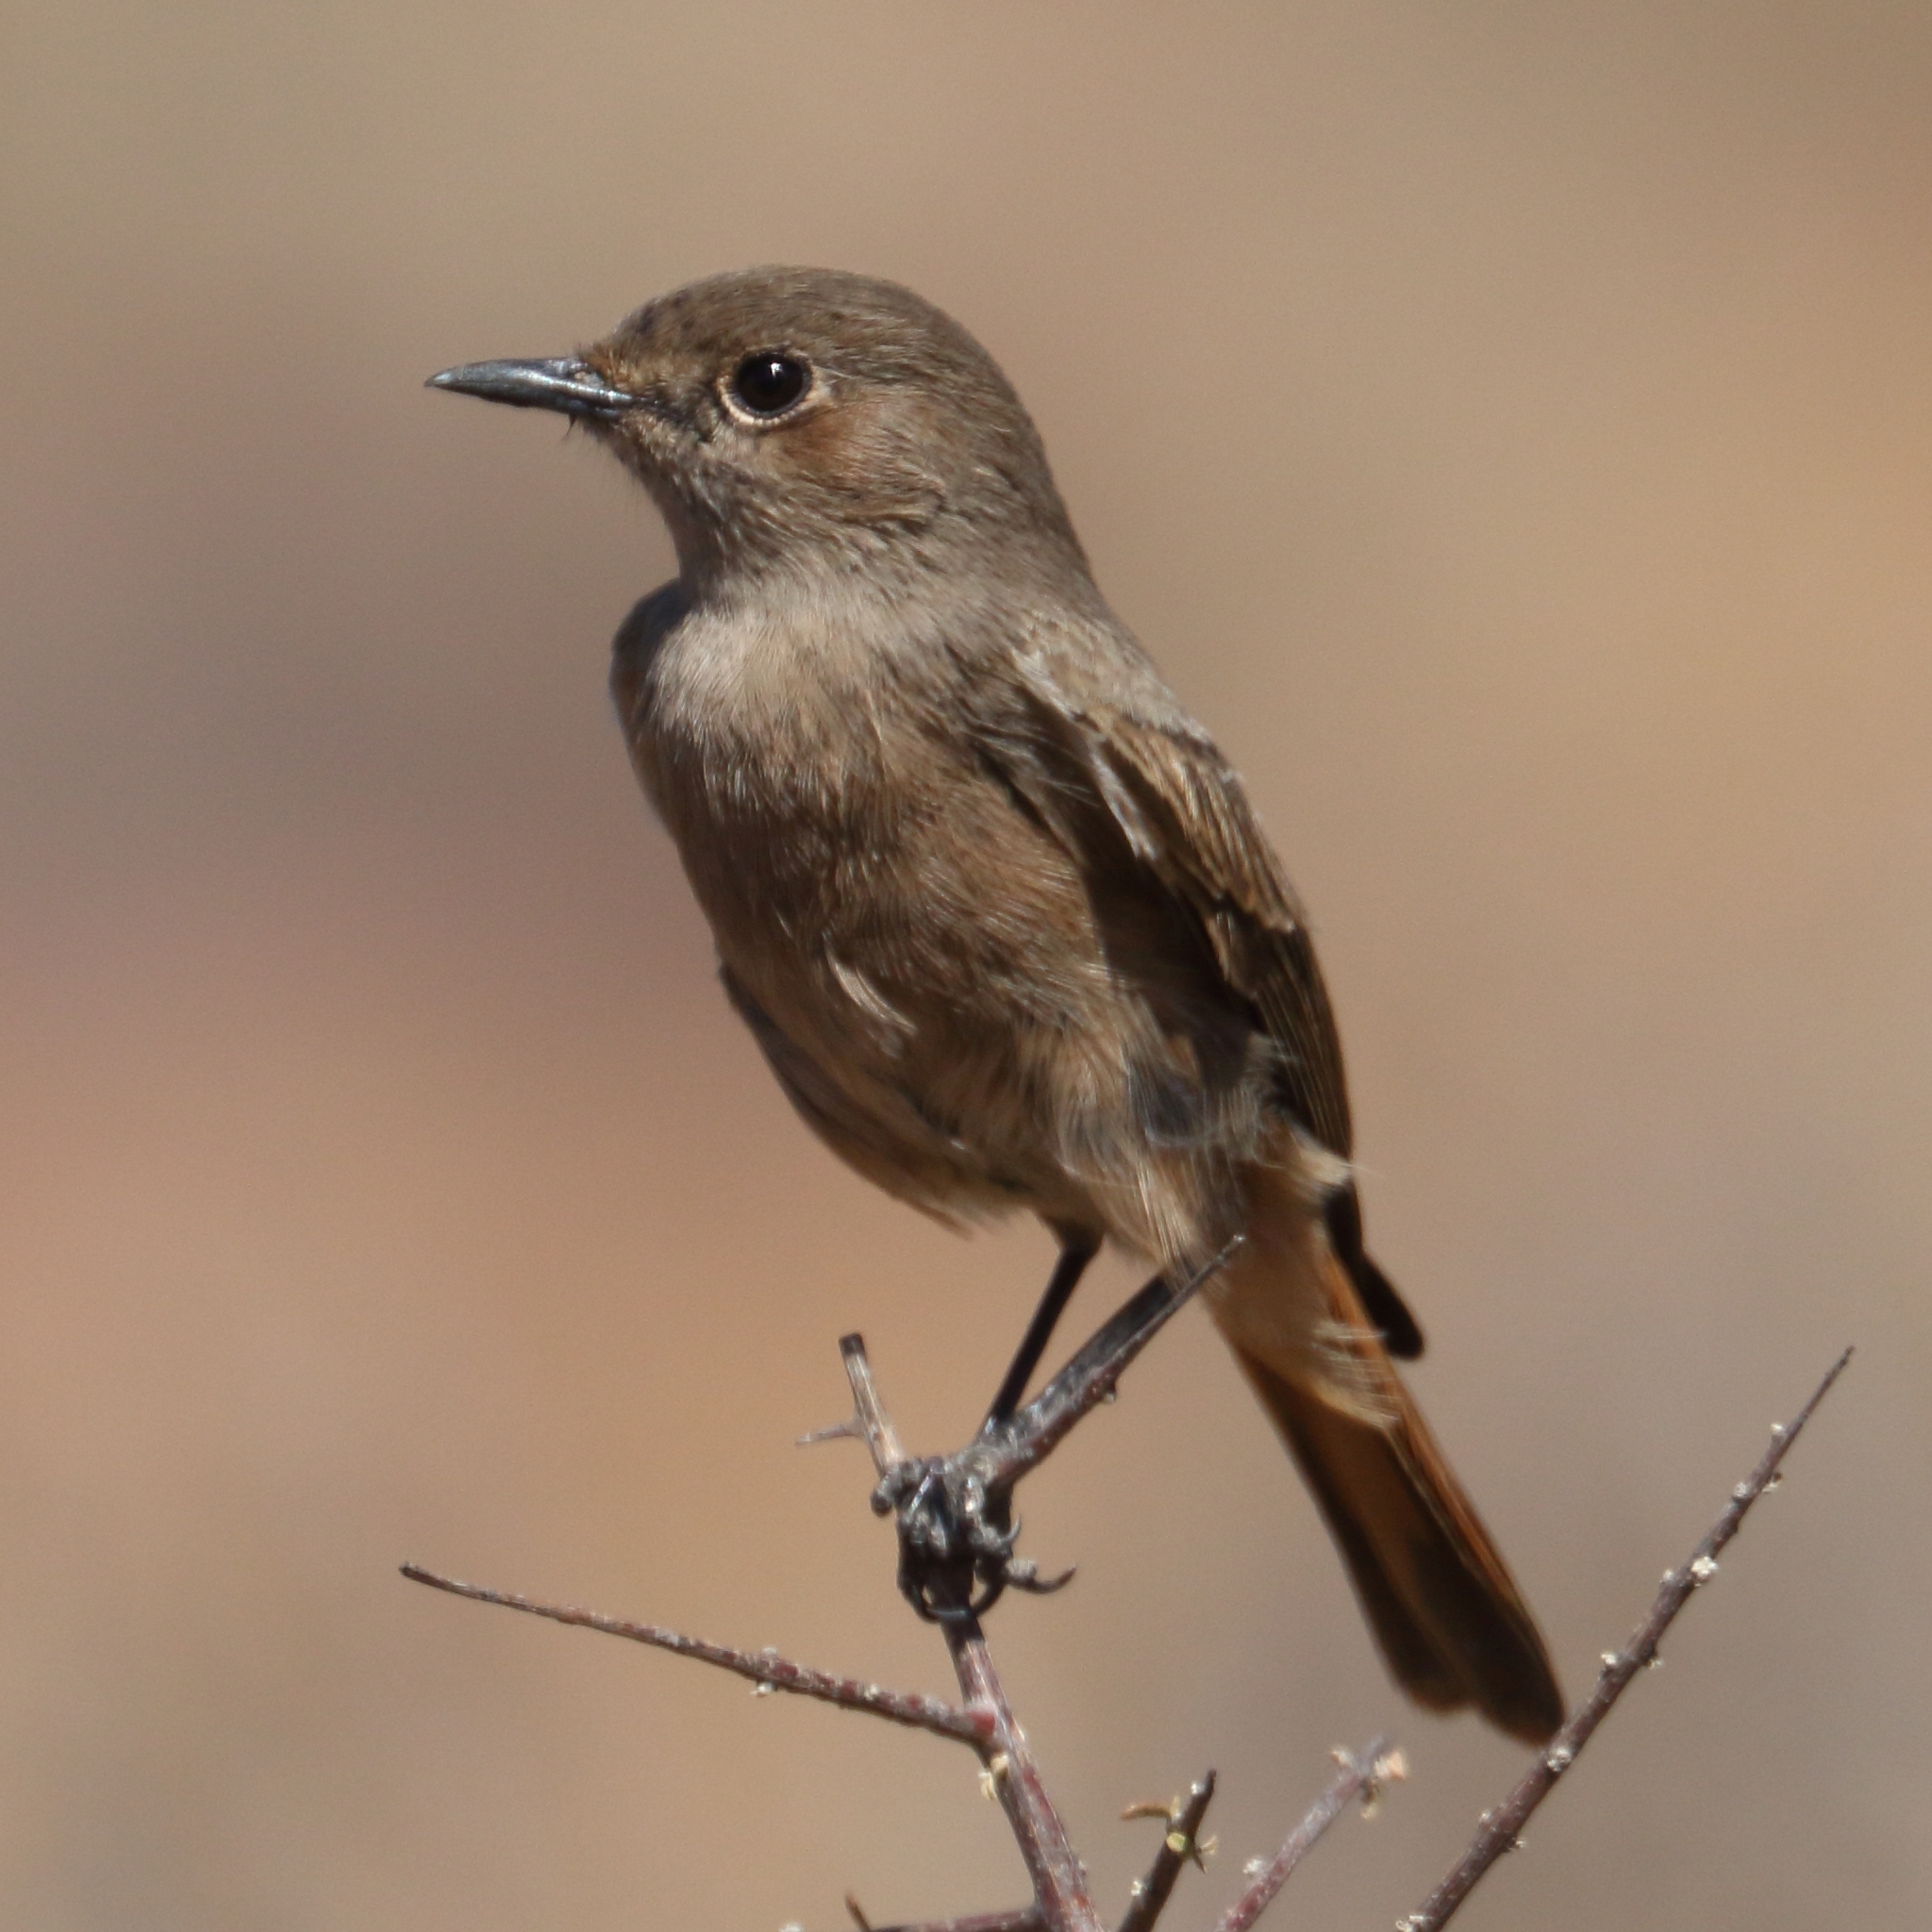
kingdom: Animalia
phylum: Chordata
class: Aves
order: Passeriformes
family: Muscicapidae
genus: Oenanthe
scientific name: Oenanthe familiaris
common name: Familiar chat
